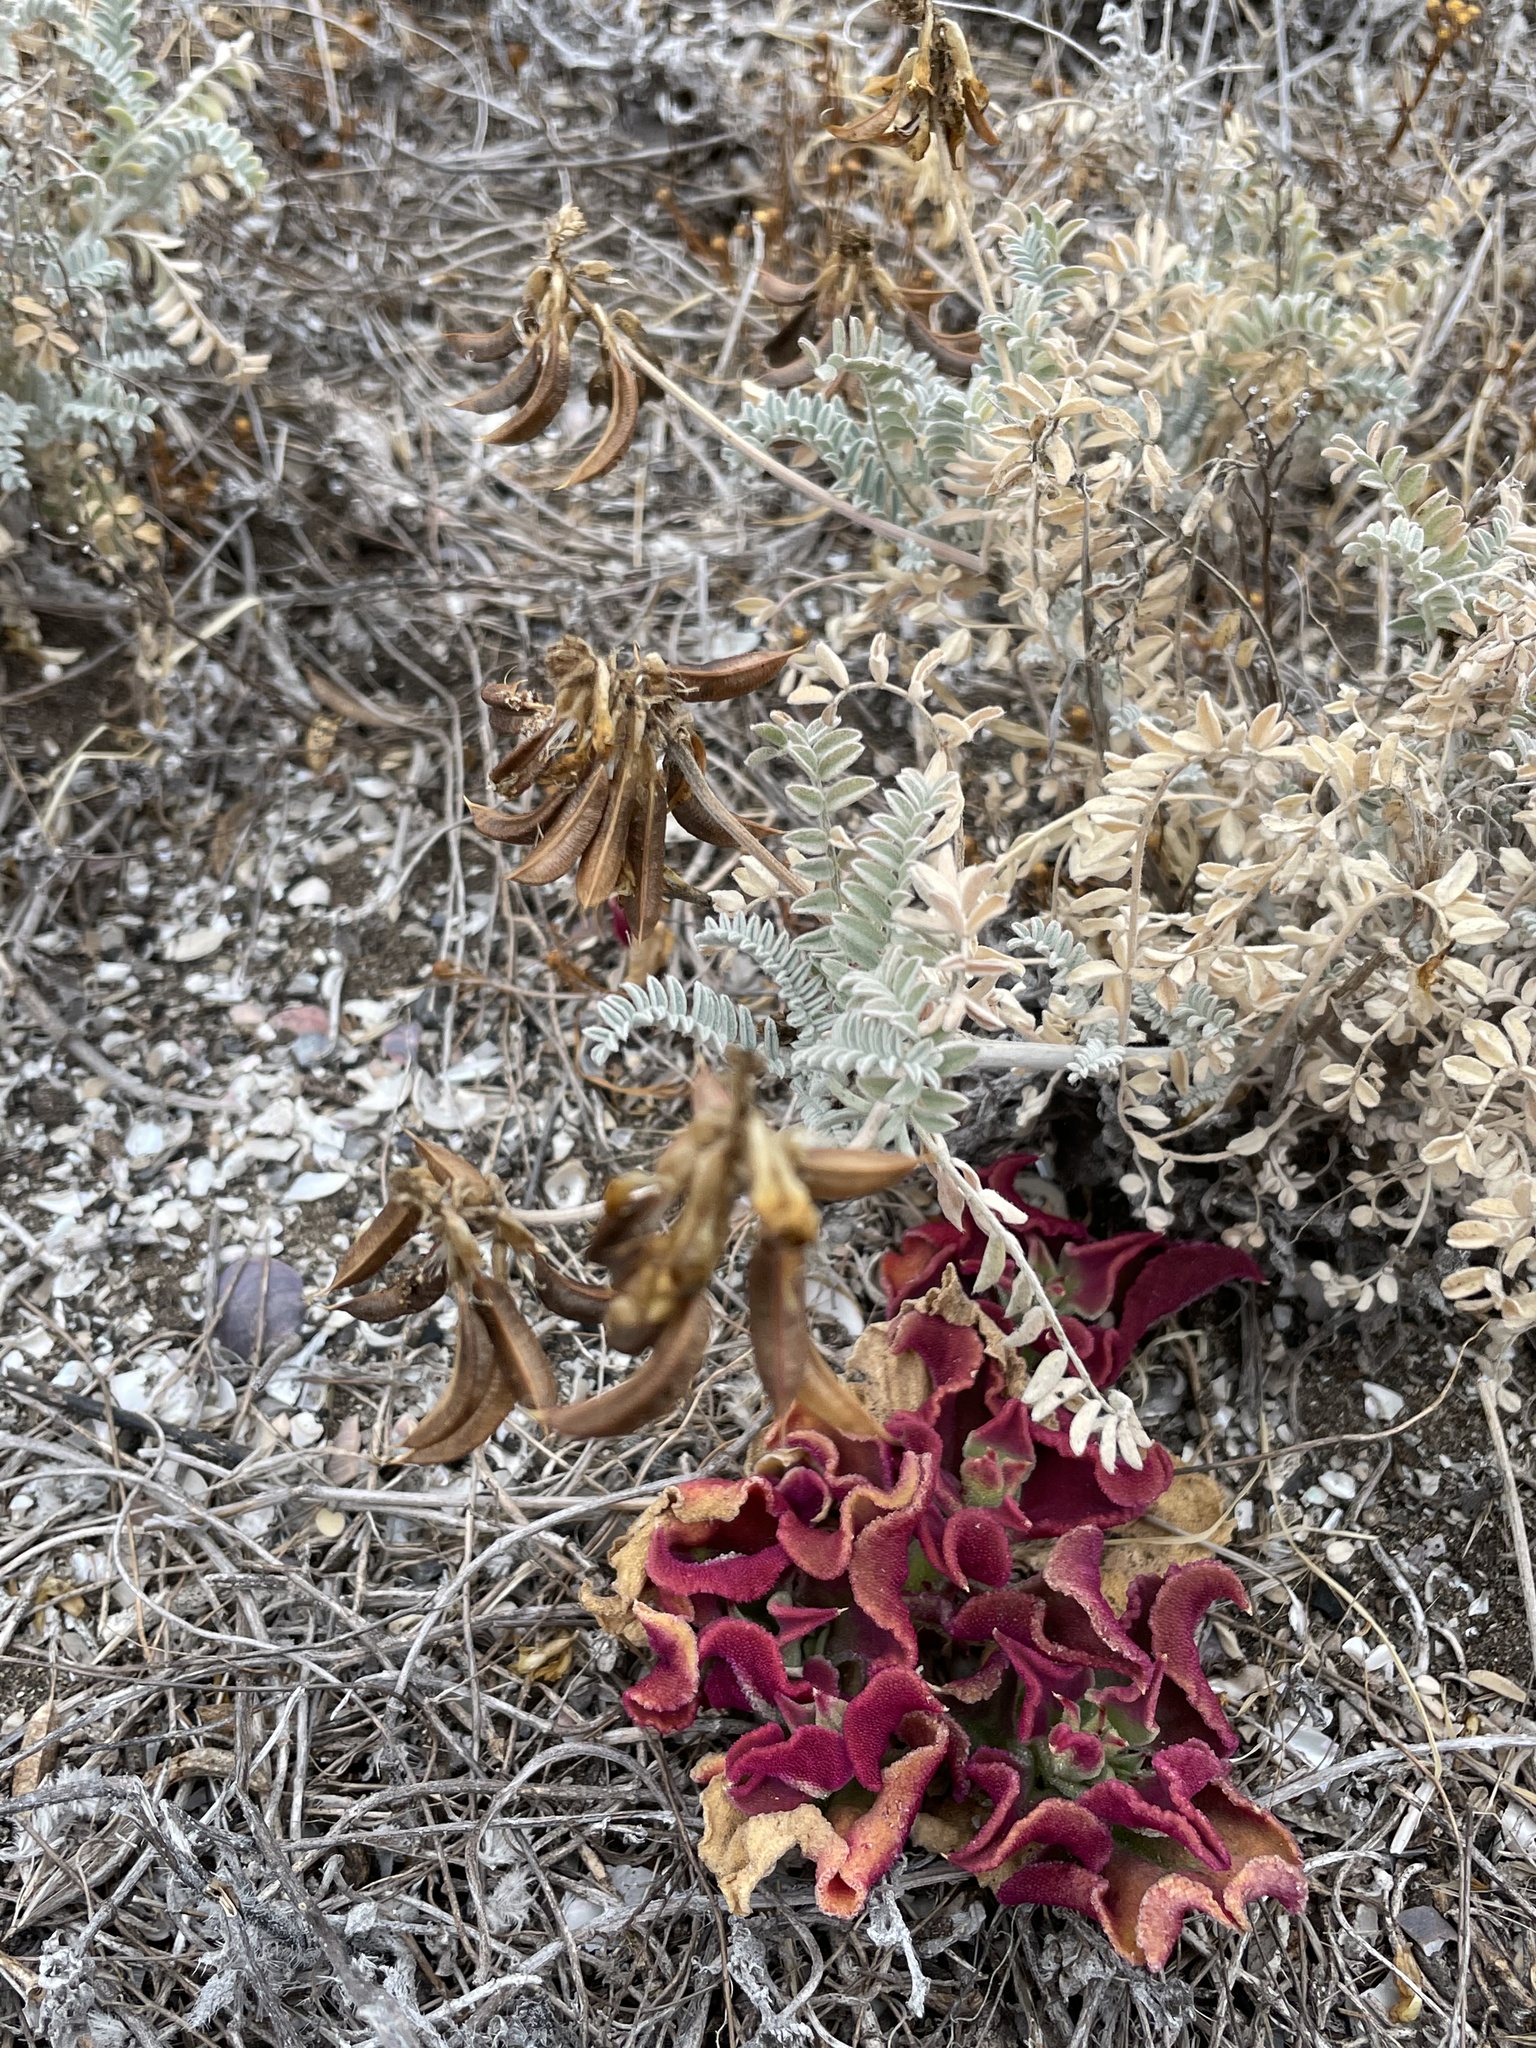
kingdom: Plantae
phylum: Tracheophyta
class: Magnoliopsida
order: Fabales
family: Fabaceae
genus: Astragalus
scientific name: Astragalus nevinii
